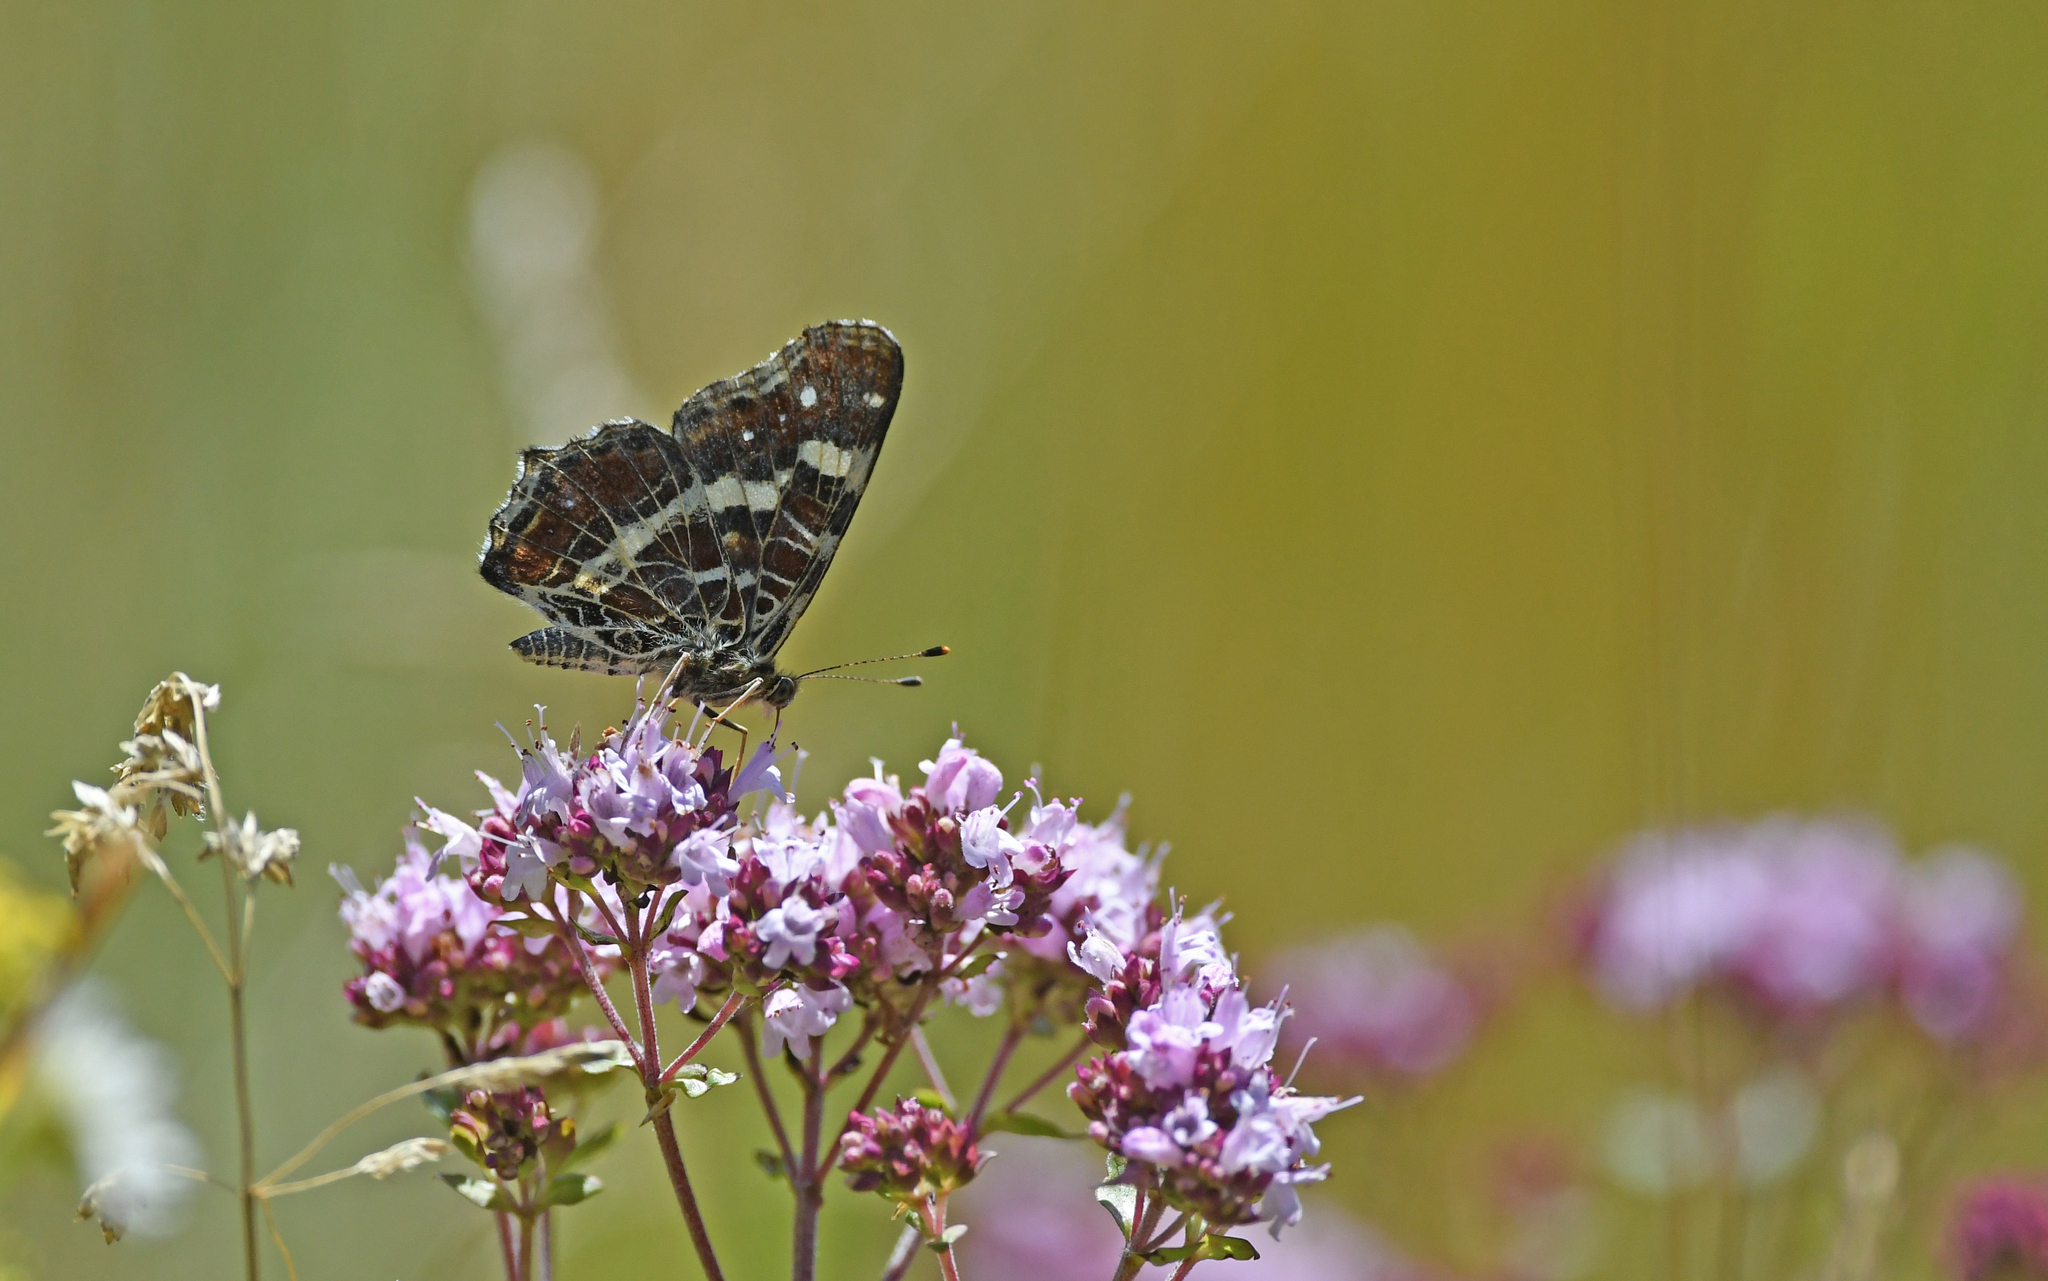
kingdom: Animalia
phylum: Arthropoda
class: Insecta
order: Lepidoptera
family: Nymphalidae
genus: Araschnia
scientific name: Araschnia levana
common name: Map butterfly
